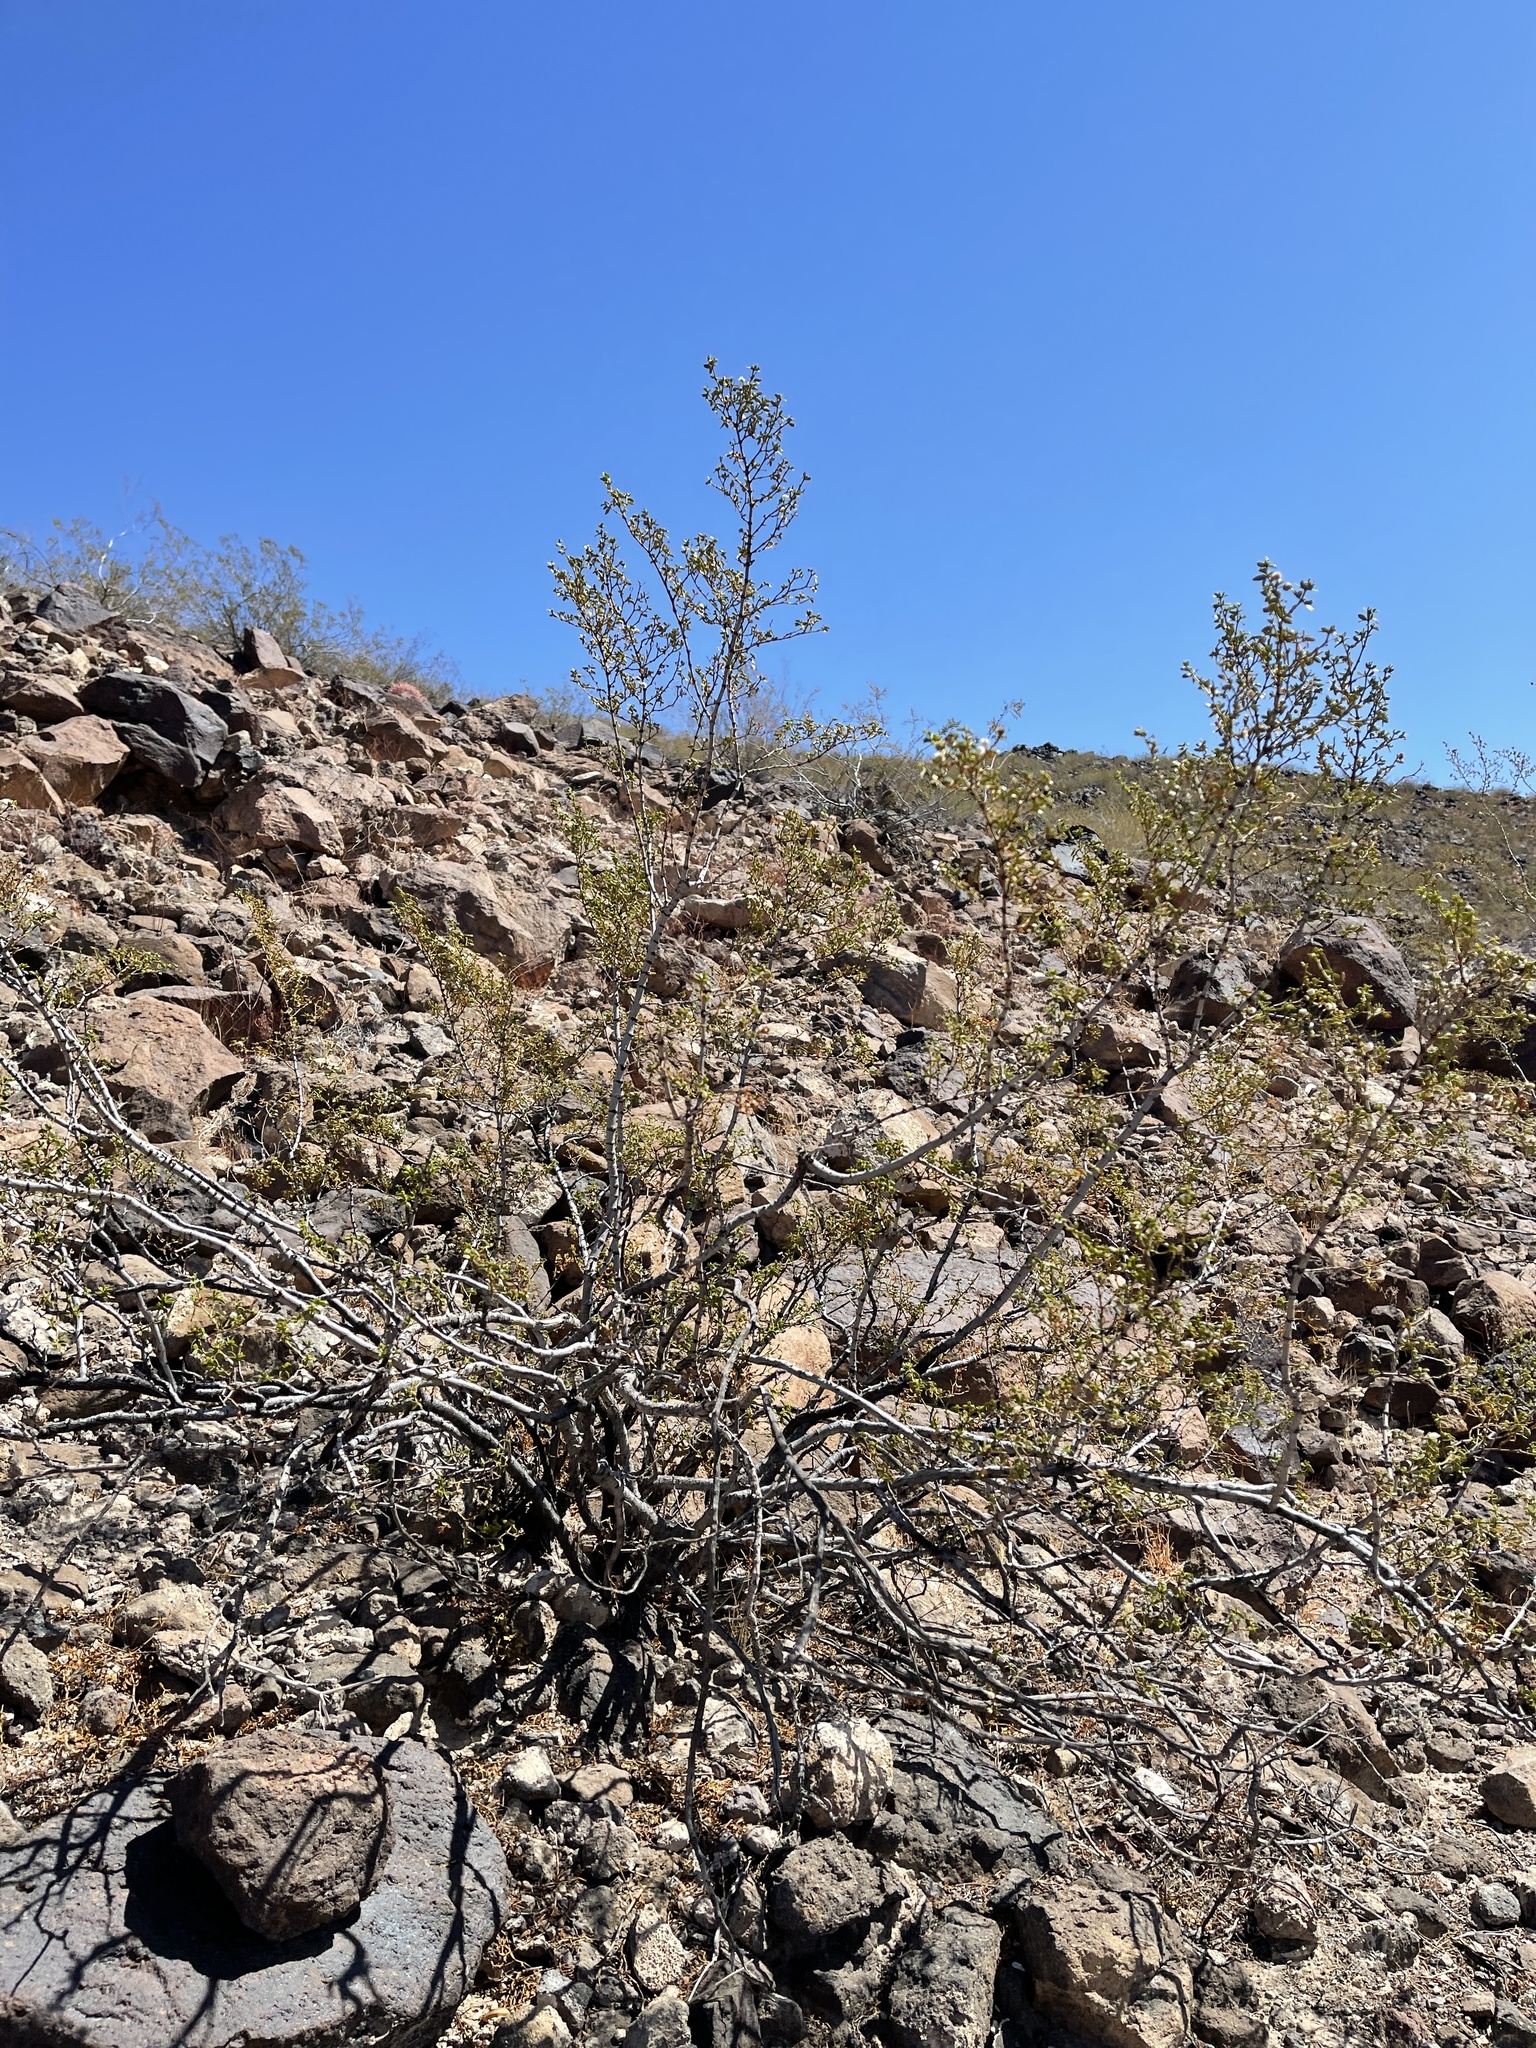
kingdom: Plantae
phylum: Tracheophyta
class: Magnoliopsida
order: Zygophyllales
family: Zygophyllaceae
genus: Larrea
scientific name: Larrea tridentata
